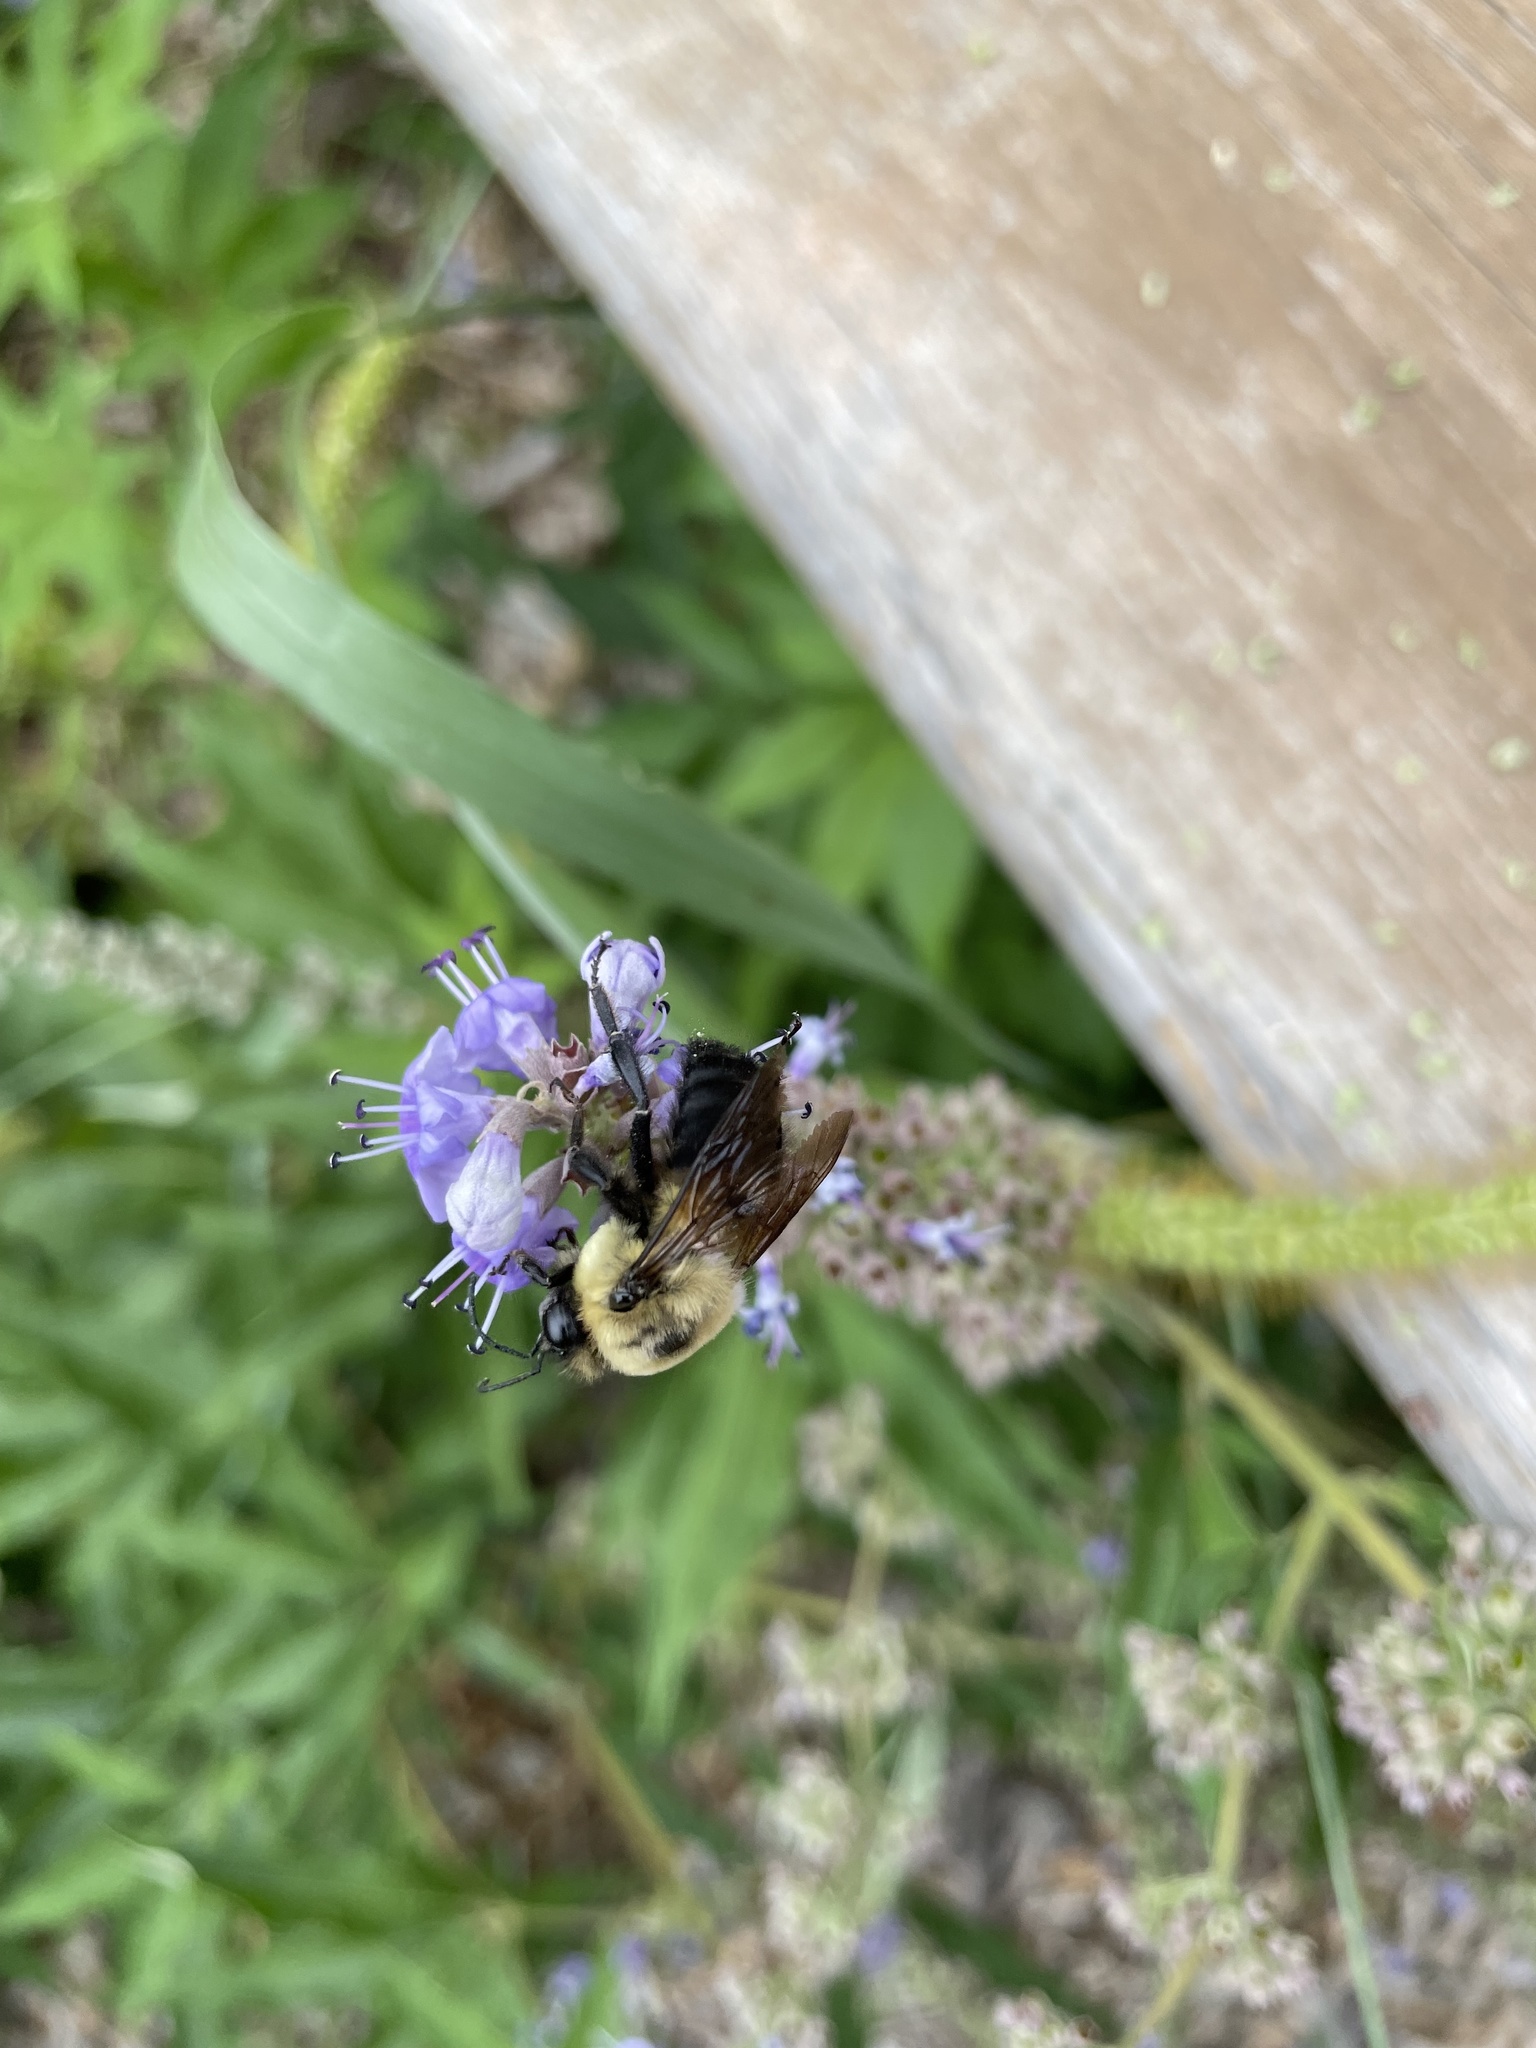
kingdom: Animalia
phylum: Arthropoda
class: Insecta
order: Hymenoptera
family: Apidae
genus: Bombus
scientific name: Bombus griseocollis
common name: Brown-belted bumble bee
